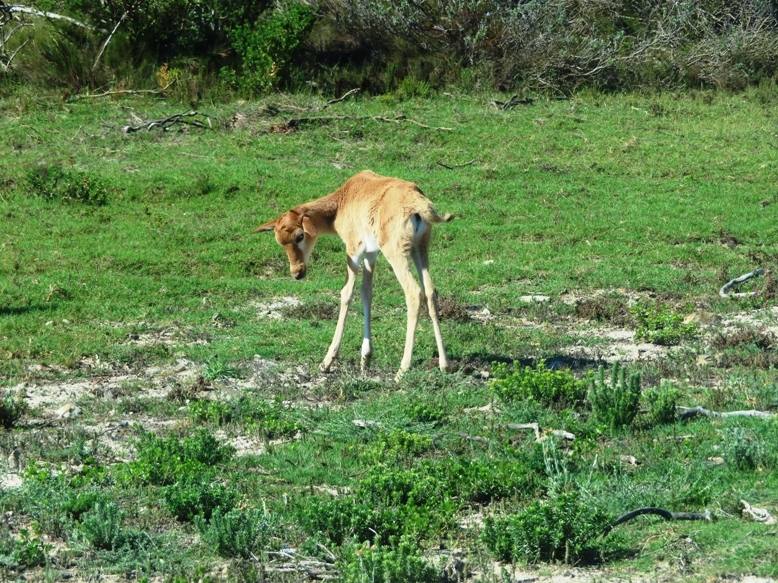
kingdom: Animalia
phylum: Chordata
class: Mammalia
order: Artiodactyla
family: Bovidae
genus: Damaliscus
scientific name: Damaliscus pygargus
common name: Bontebok
